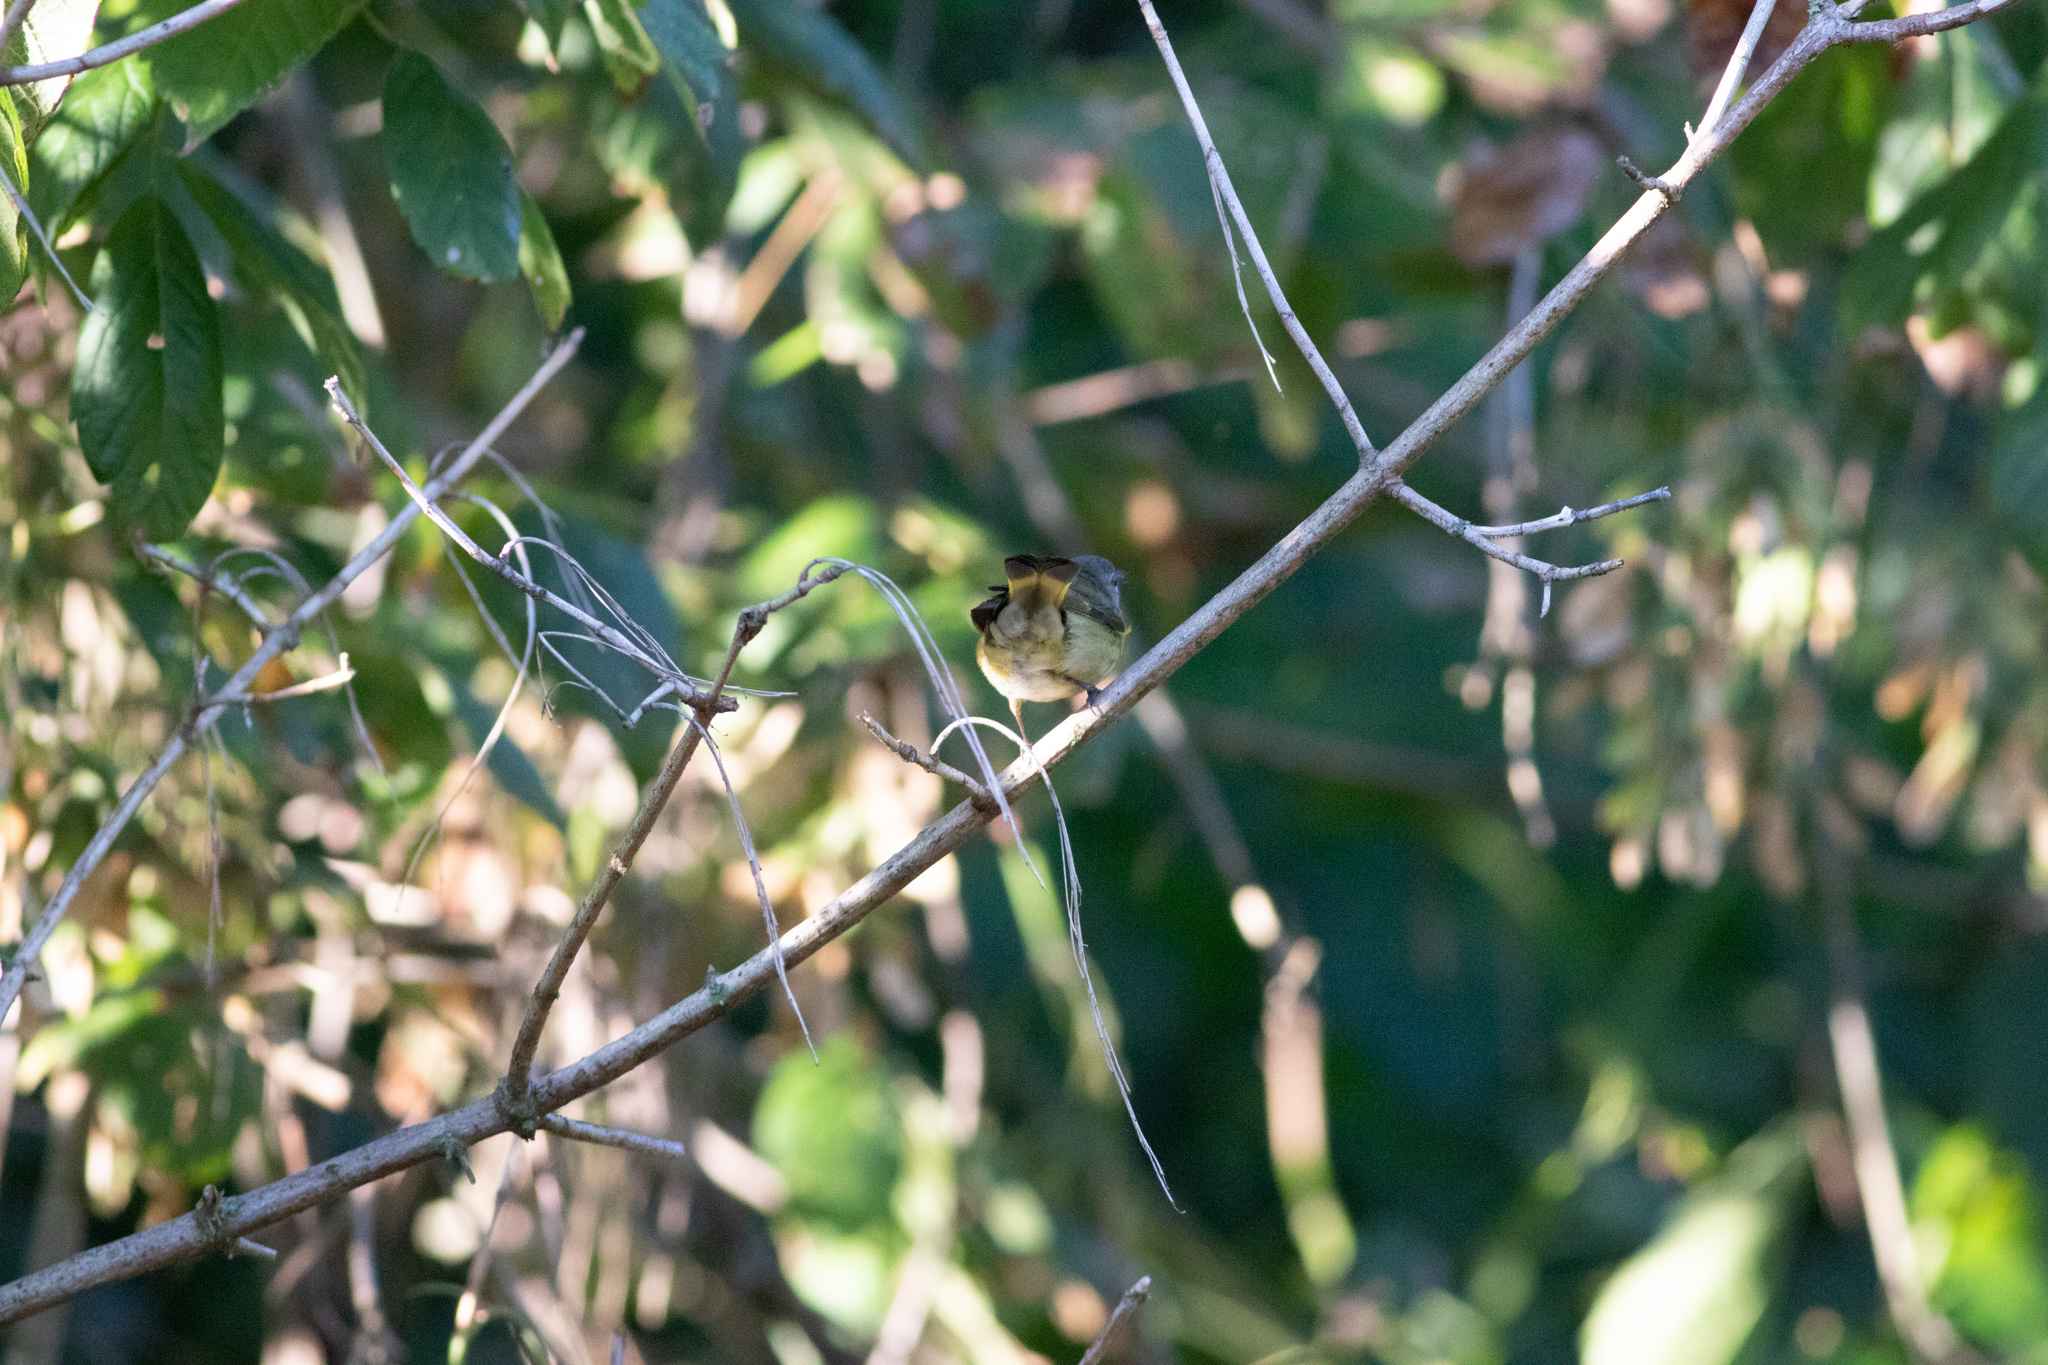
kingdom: Animalia
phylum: Chordata
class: Aves
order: Passeriformes
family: Parulidae
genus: Setophaga
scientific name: Setophaga ruticilla
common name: American redstart
